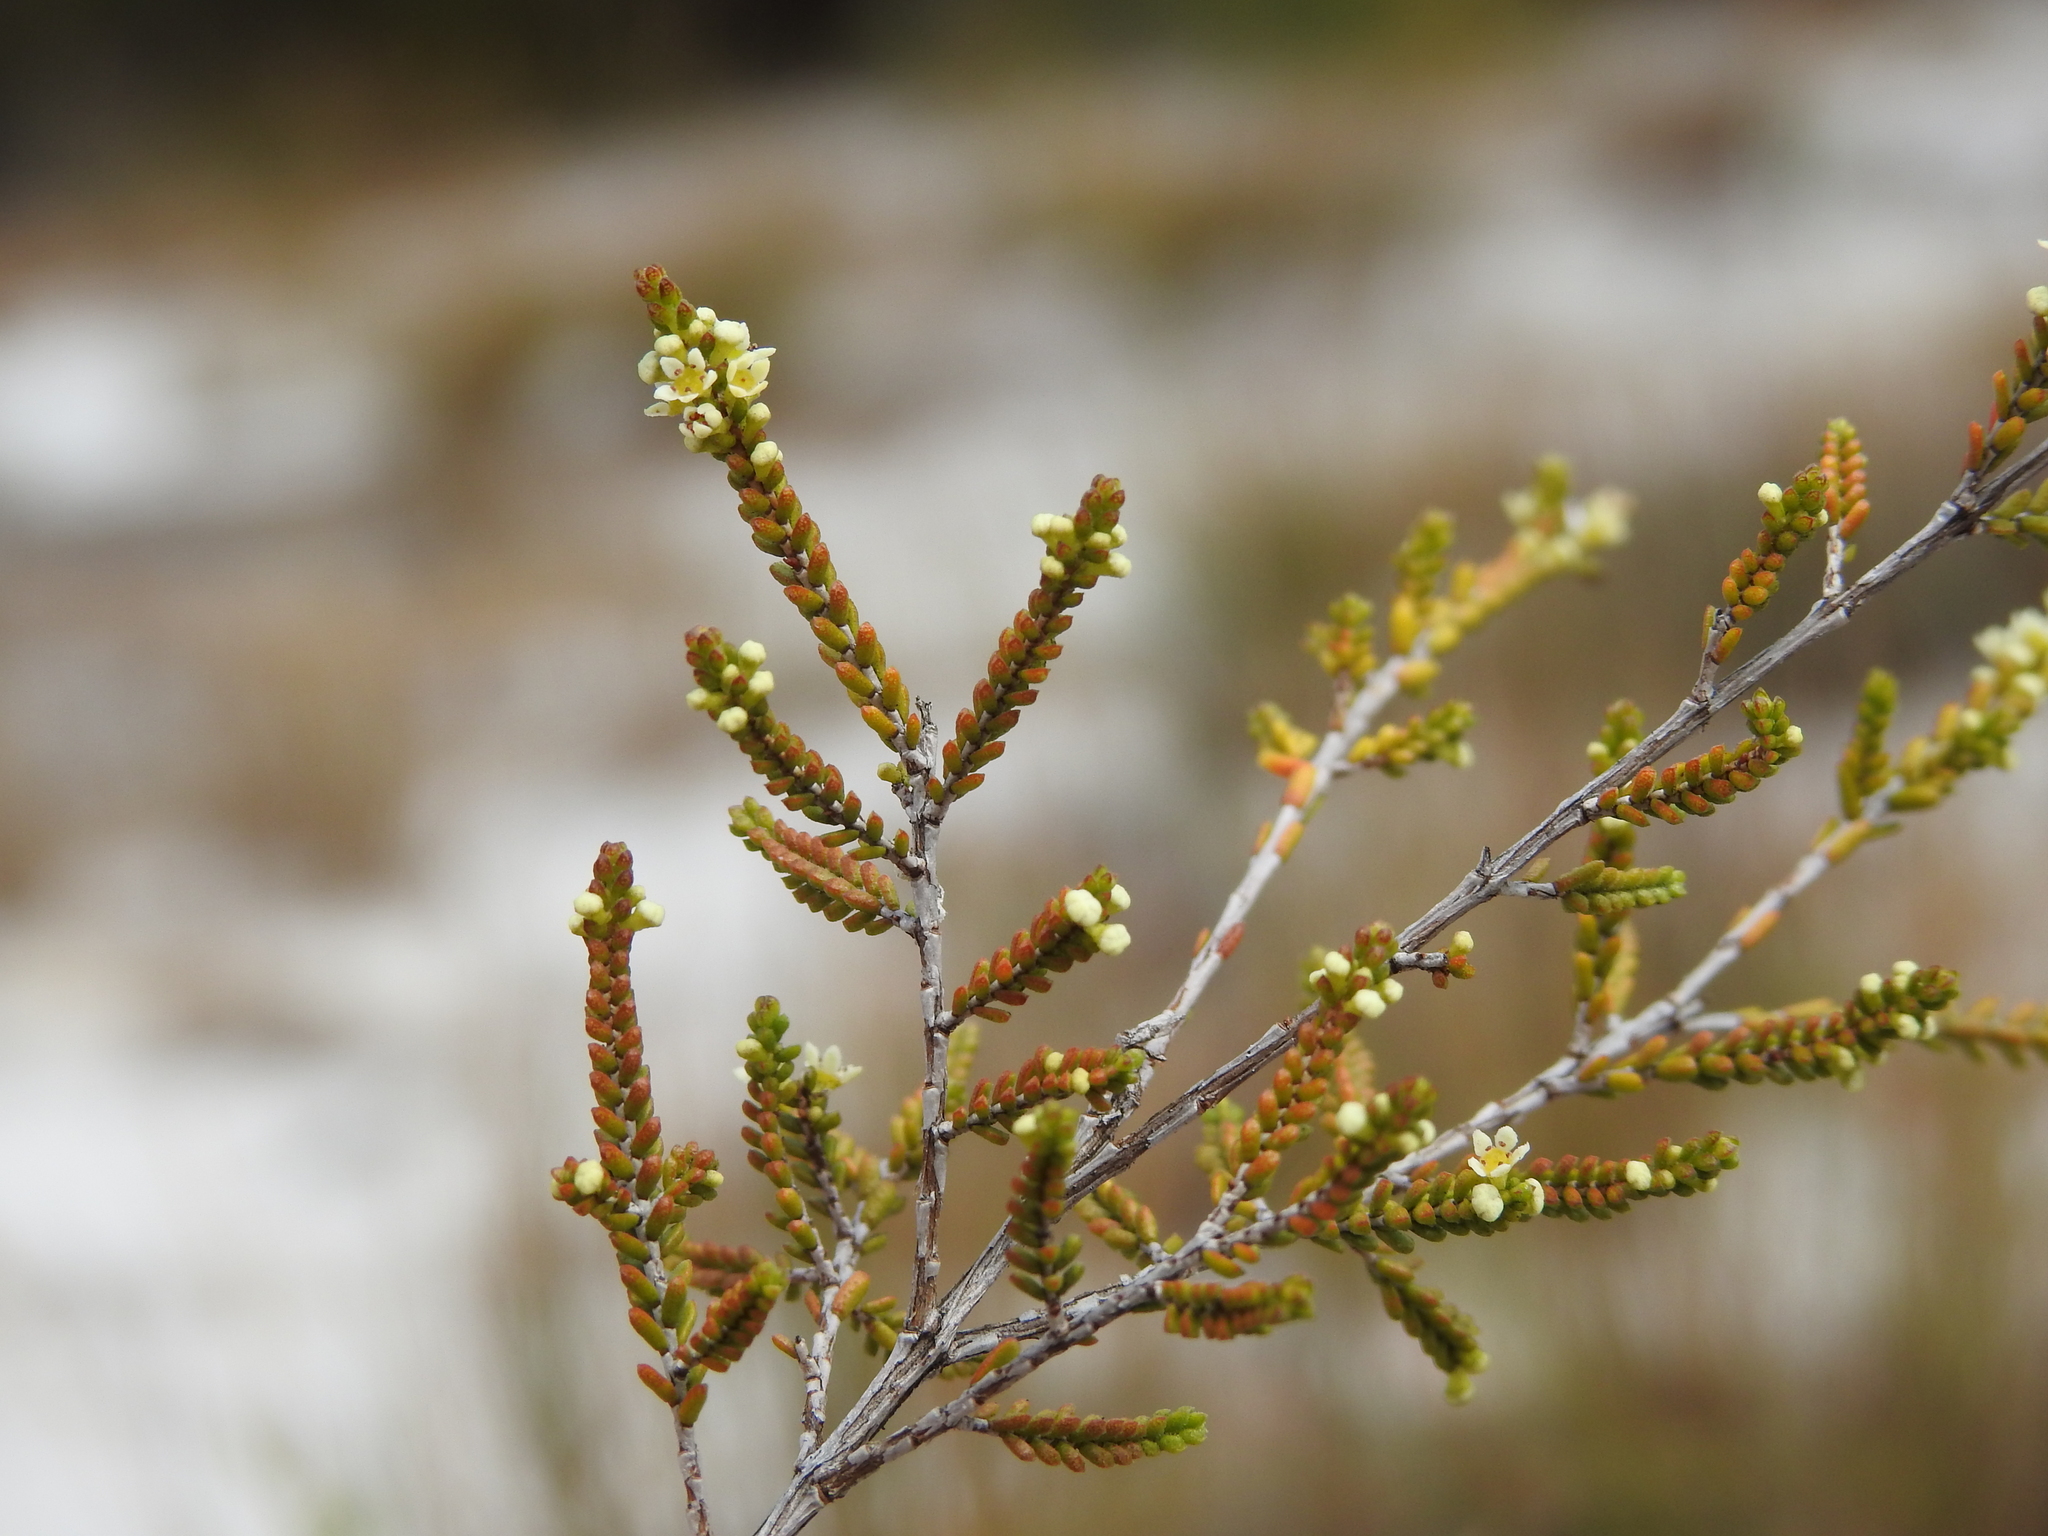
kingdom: Plantae
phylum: Tracheophyta
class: Magnoliopsida
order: Myrtales
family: Myrtaceae
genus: Micromyrtus
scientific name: Micromyrtus littoralis
